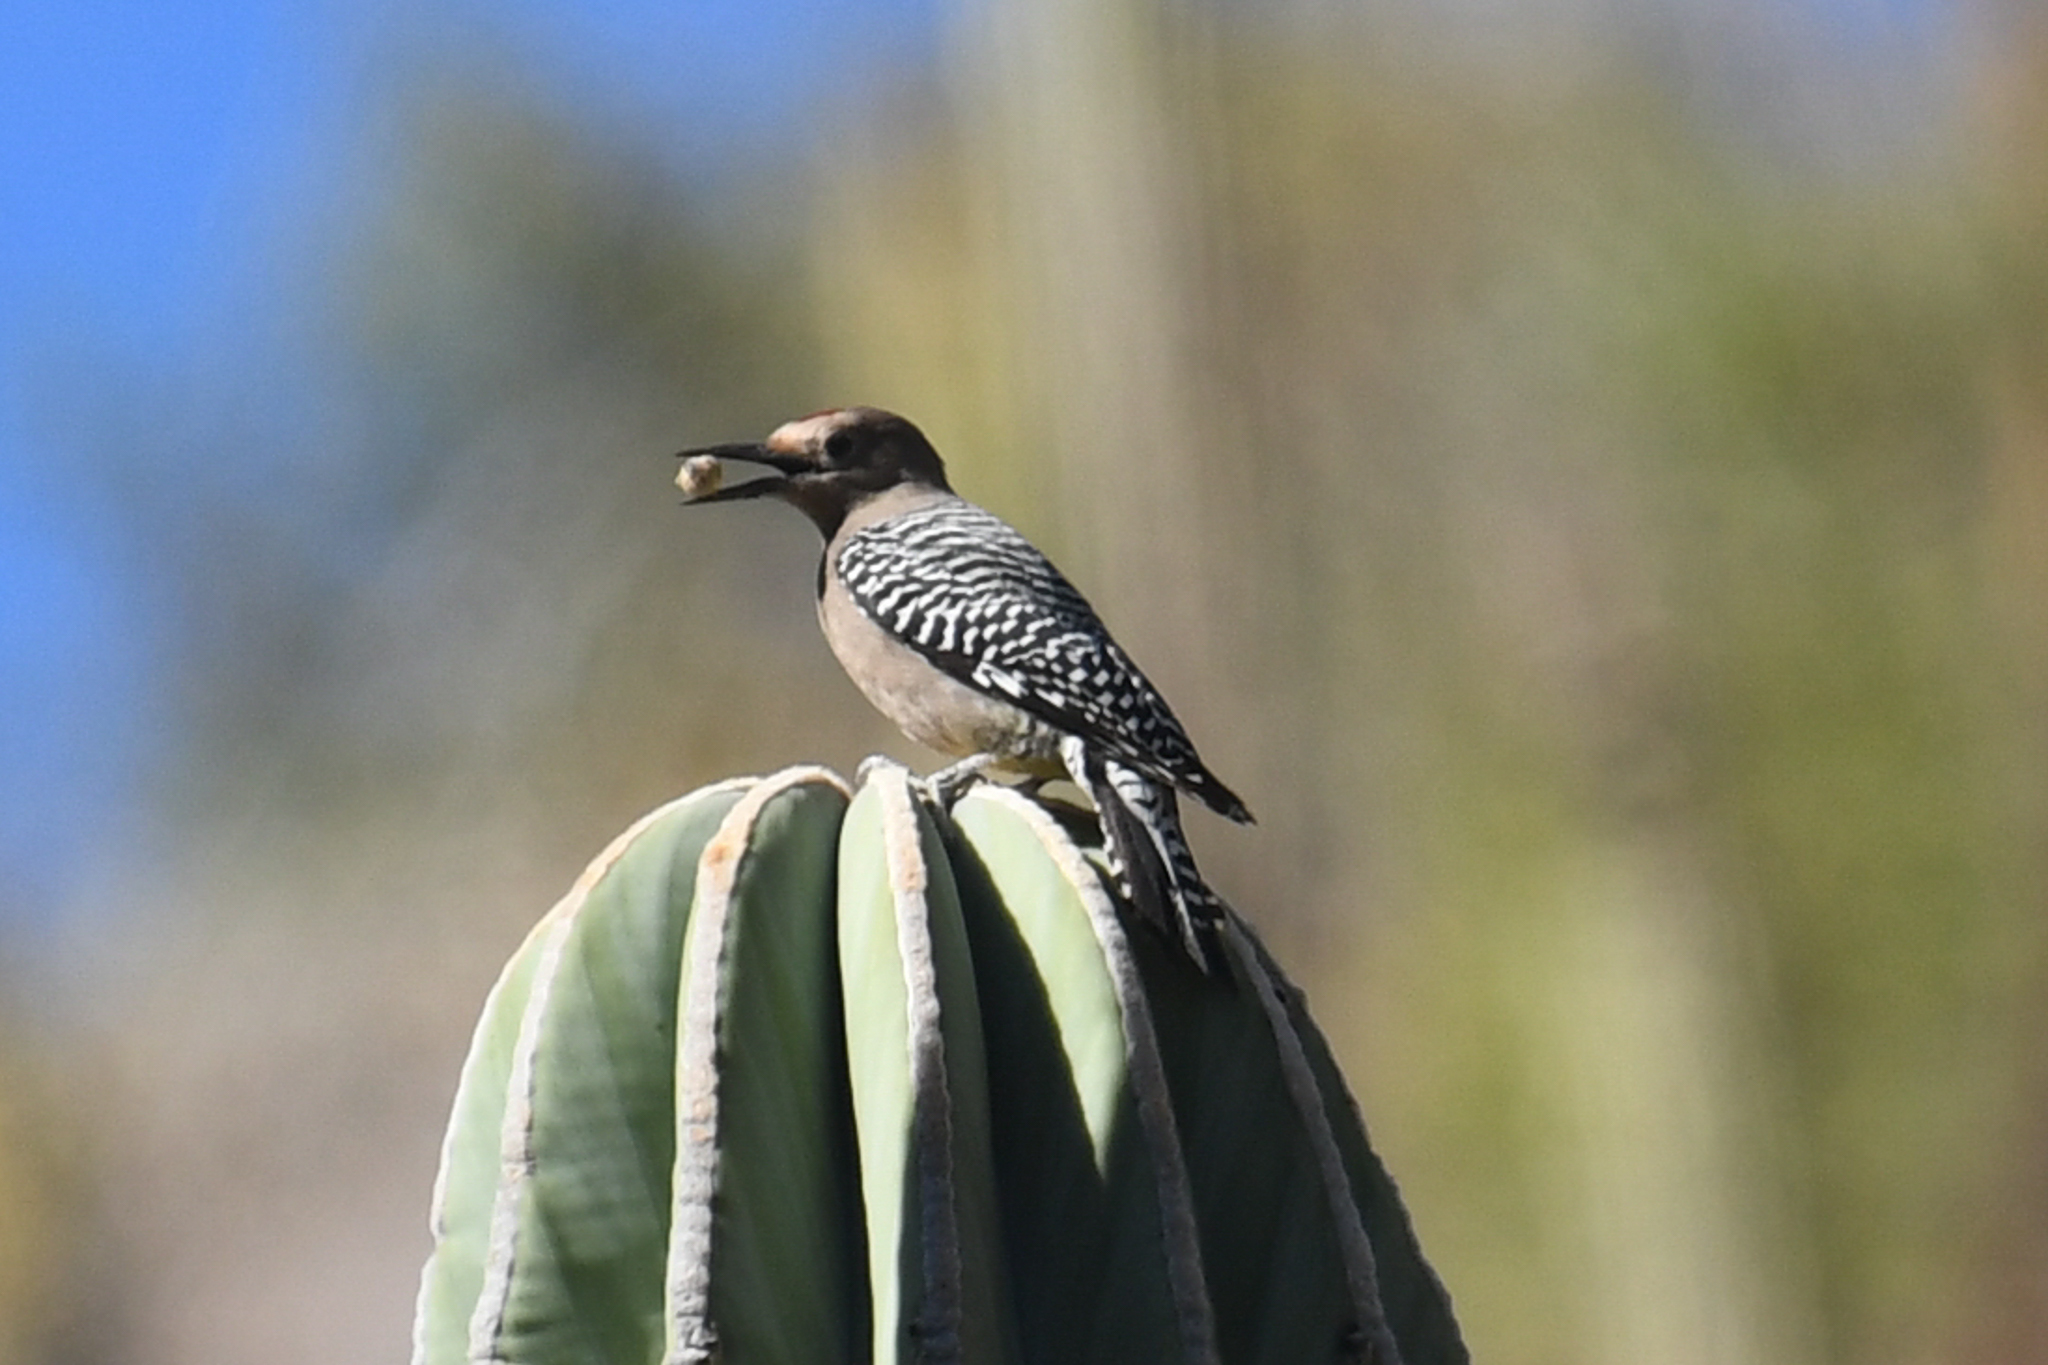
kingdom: Animalia
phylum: Chordata
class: Aves
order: Piciformes
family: Picidae
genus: Melanerpes
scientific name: Melanerpes uropygialis
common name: Gila woodpecker
